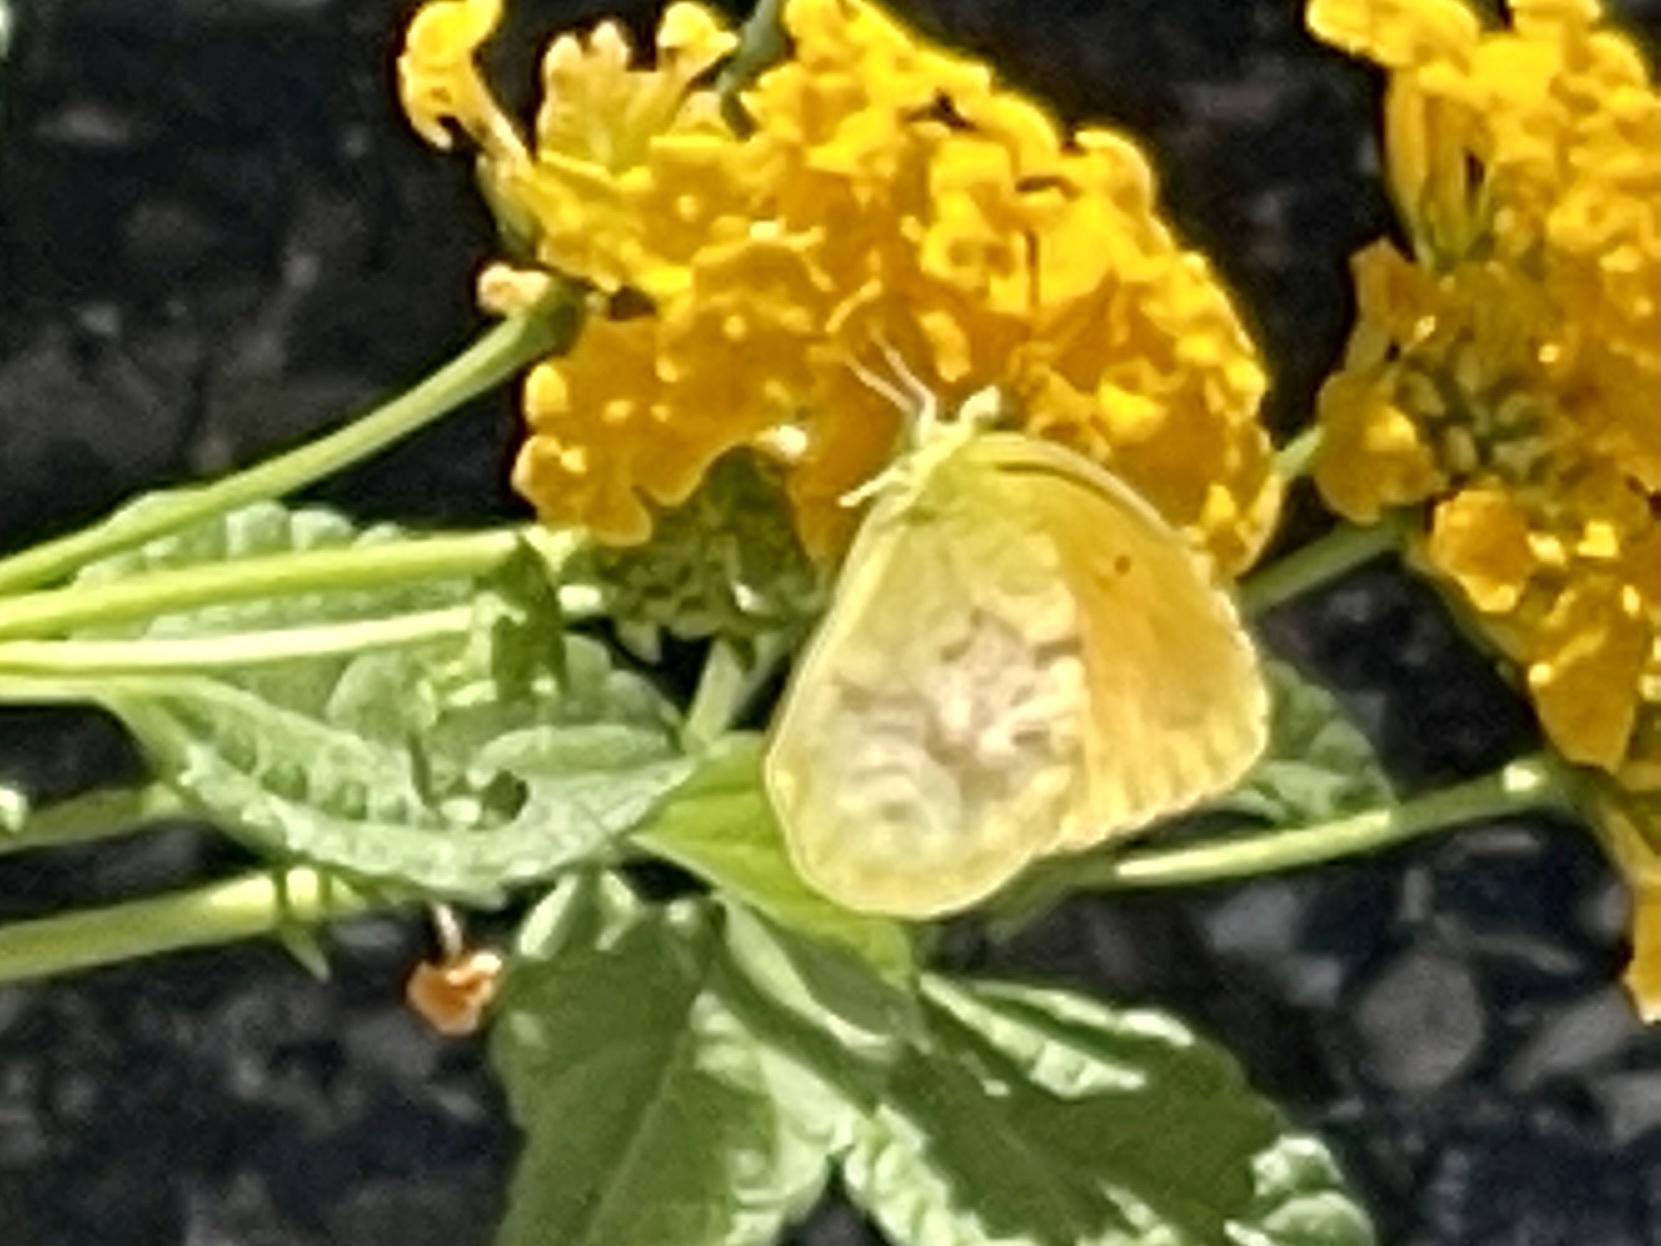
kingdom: Animalia
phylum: Arthropoda
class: Insecta
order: Lepidoptera
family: Pieridae
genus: Abaeis
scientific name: Abaeis nicippe
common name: Sleepy orange
